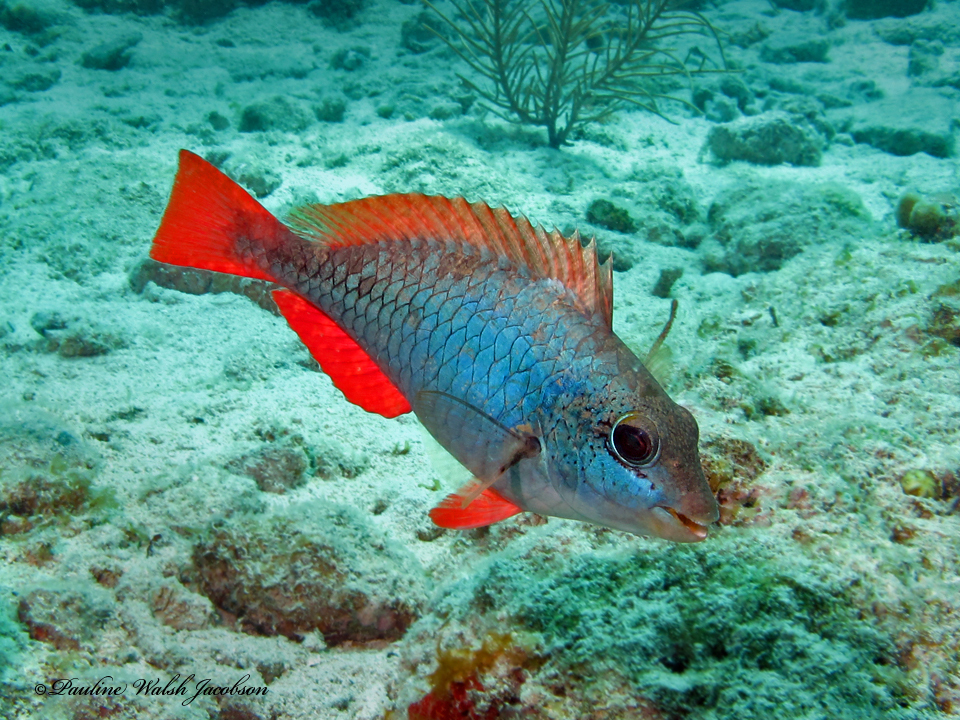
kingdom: Animalia
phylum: Chordata
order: Perciformes
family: Scaridae
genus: Sparisoma
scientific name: Sparisoma aurofrenatum
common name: Redband parrotfish
